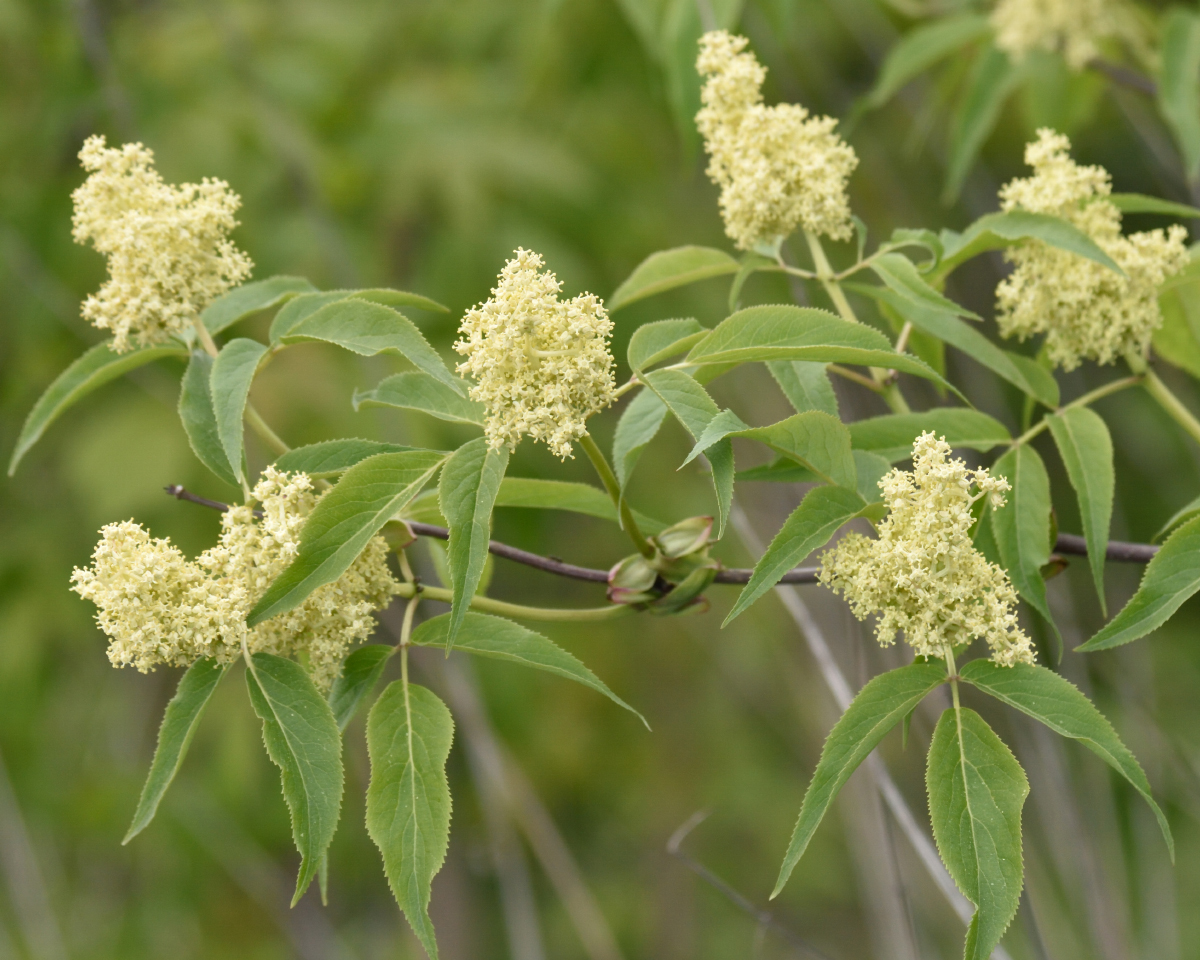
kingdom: Plantae
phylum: Tracheophyta
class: Magnoliopsida
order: Dipsacales
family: Viburnaceae
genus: Sambucus
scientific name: Sambucus racemosa
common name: Red-berried elder
